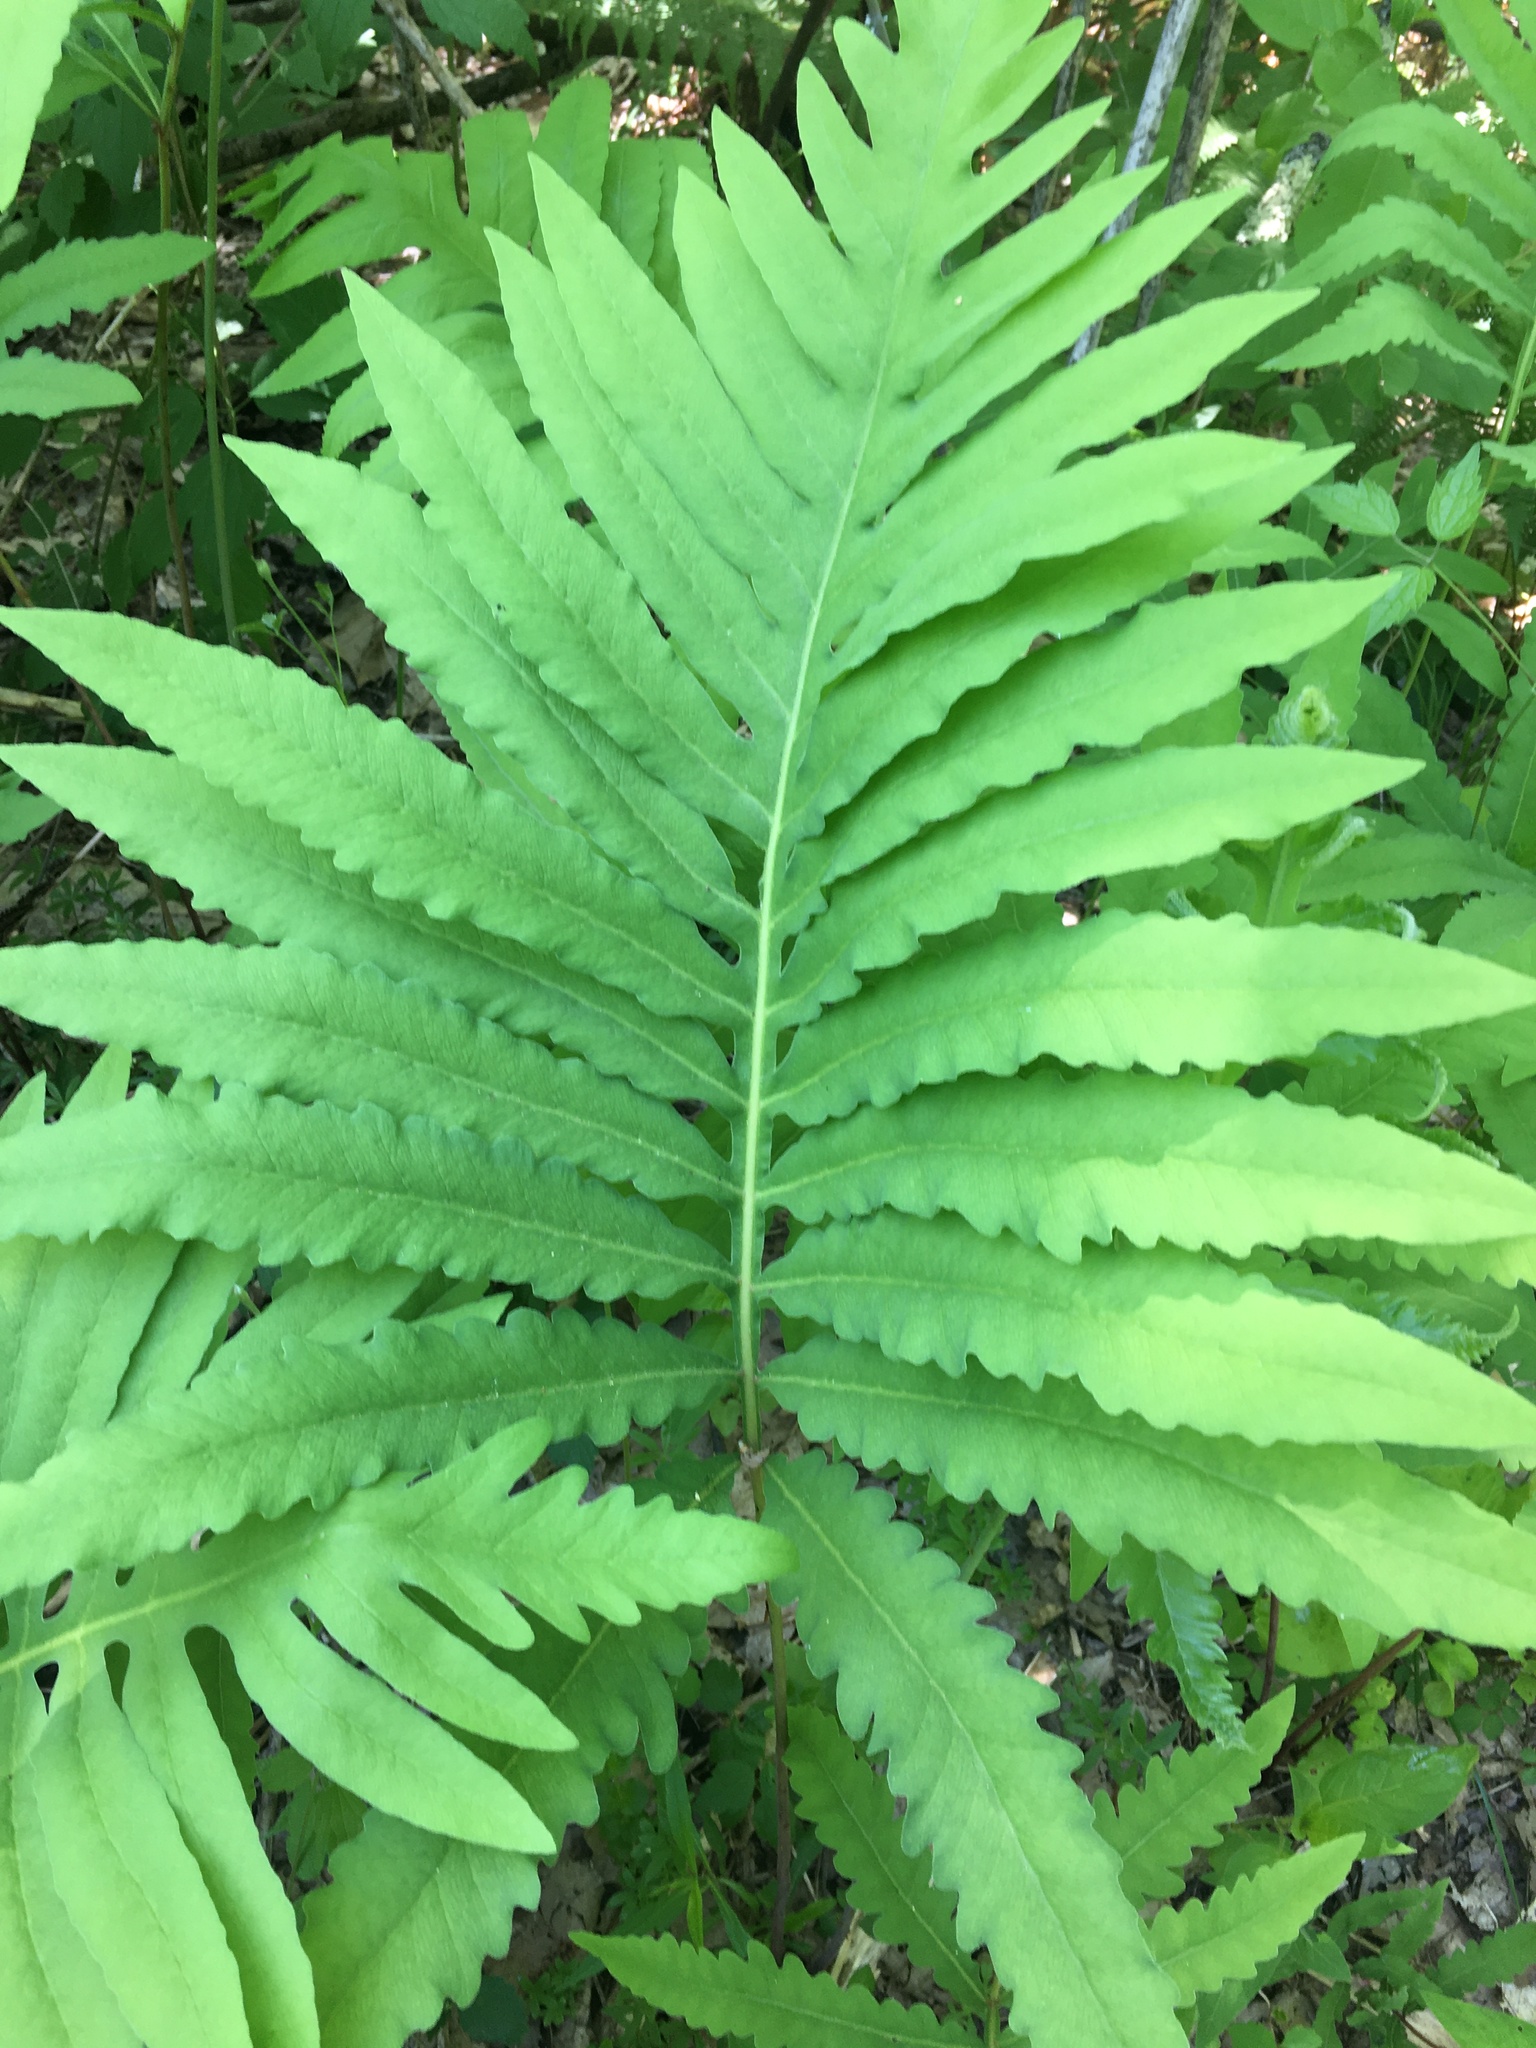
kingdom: Plantae
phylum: Tracheophyta
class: Polypodiopsida
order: Polypodiales
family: Onocleaceae
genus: Onoclea
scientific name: Onoclea sensibilis
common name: Sensitive fern
